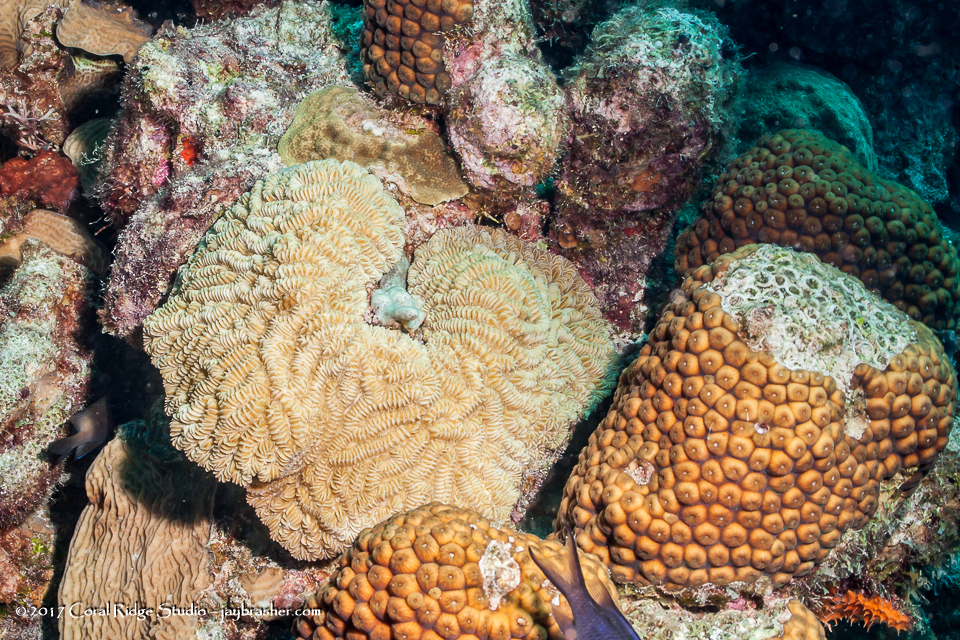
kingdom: Animalia
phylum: Cnidaria
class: Anthozoa
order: Scleractinia
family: Montastraeidae
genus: Montastraea
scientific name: Montastraea cavernosa
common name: Great star coral
